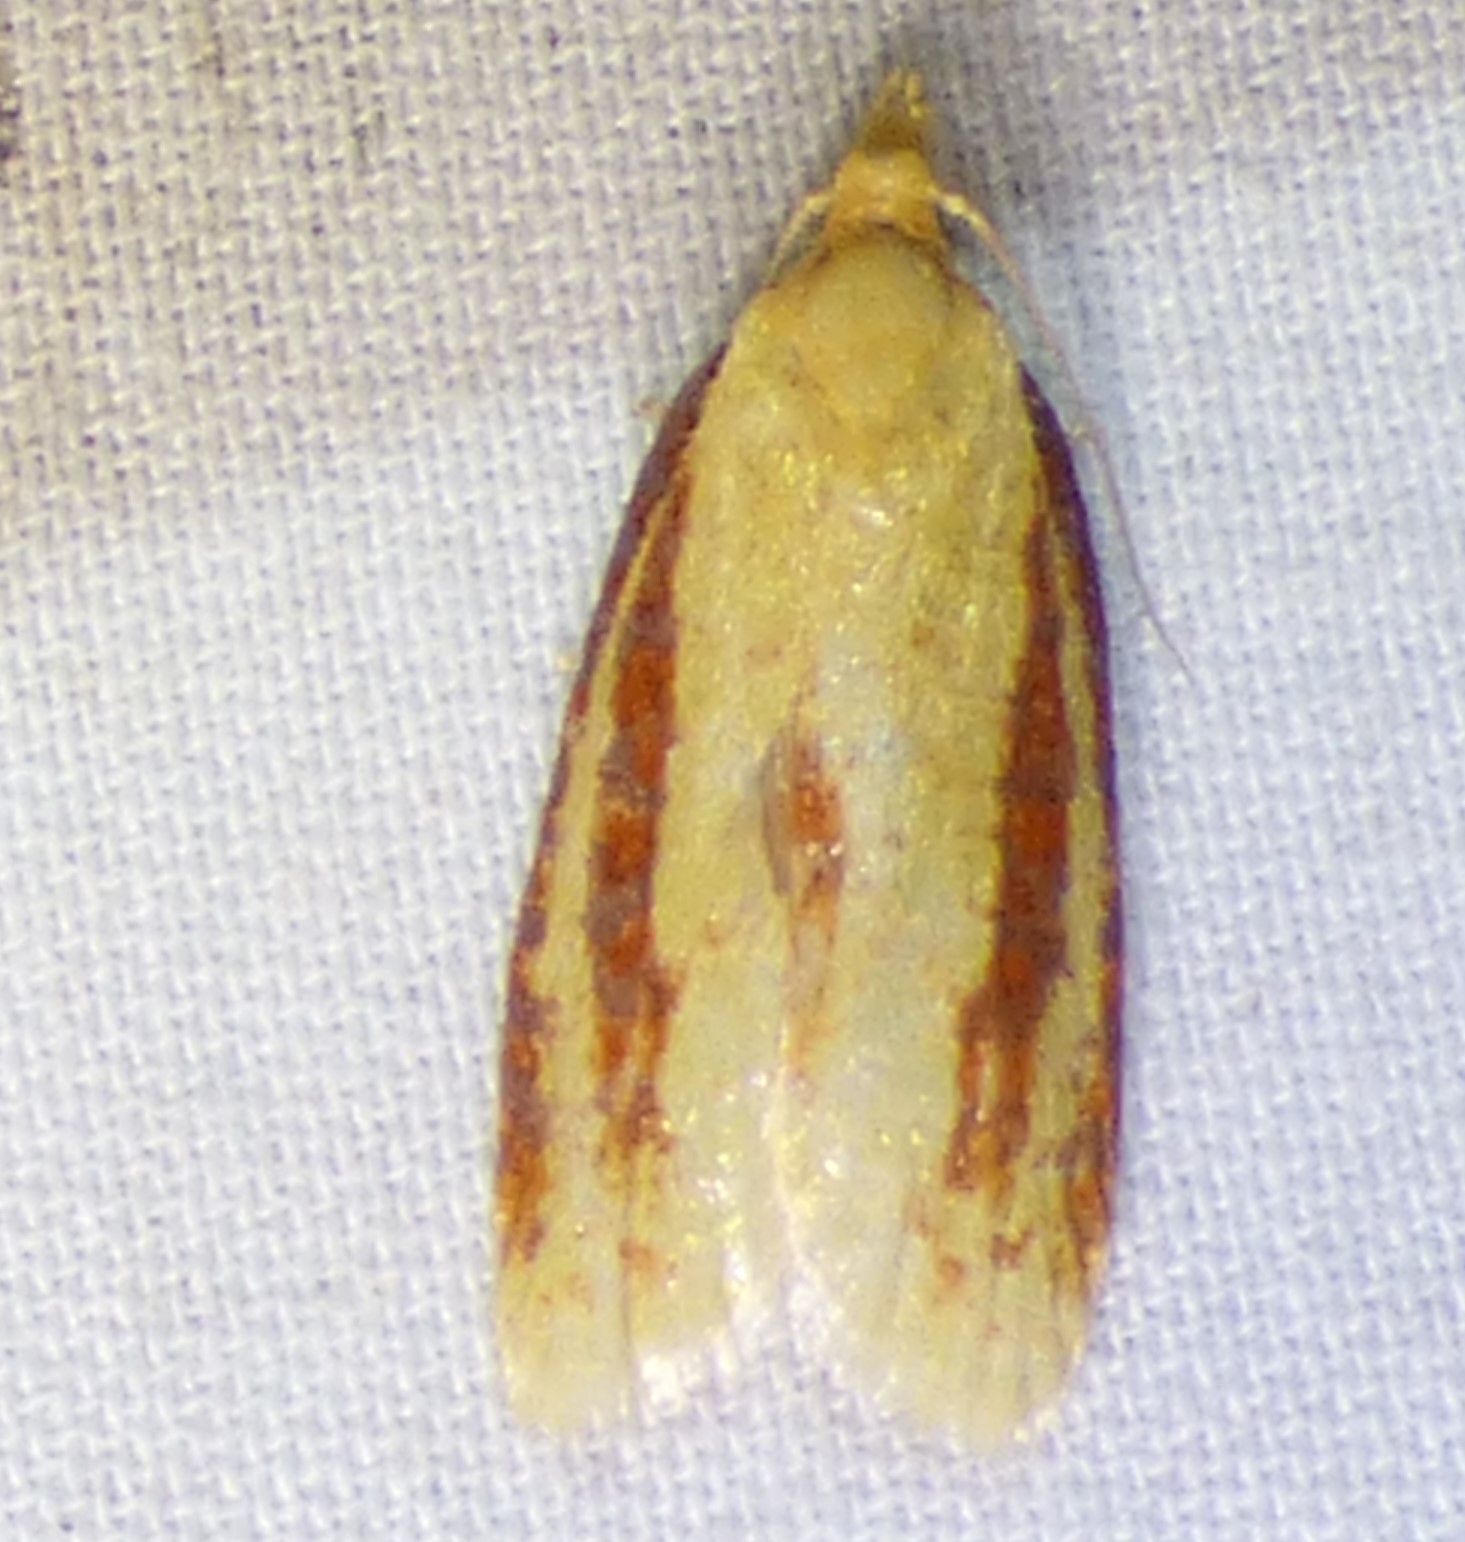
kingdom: Animalia
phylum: Arthropoda
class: Insecta
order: Lepidoptera
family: Tortricidae
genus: Sparganothis
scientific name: Sparganothis bistriata
